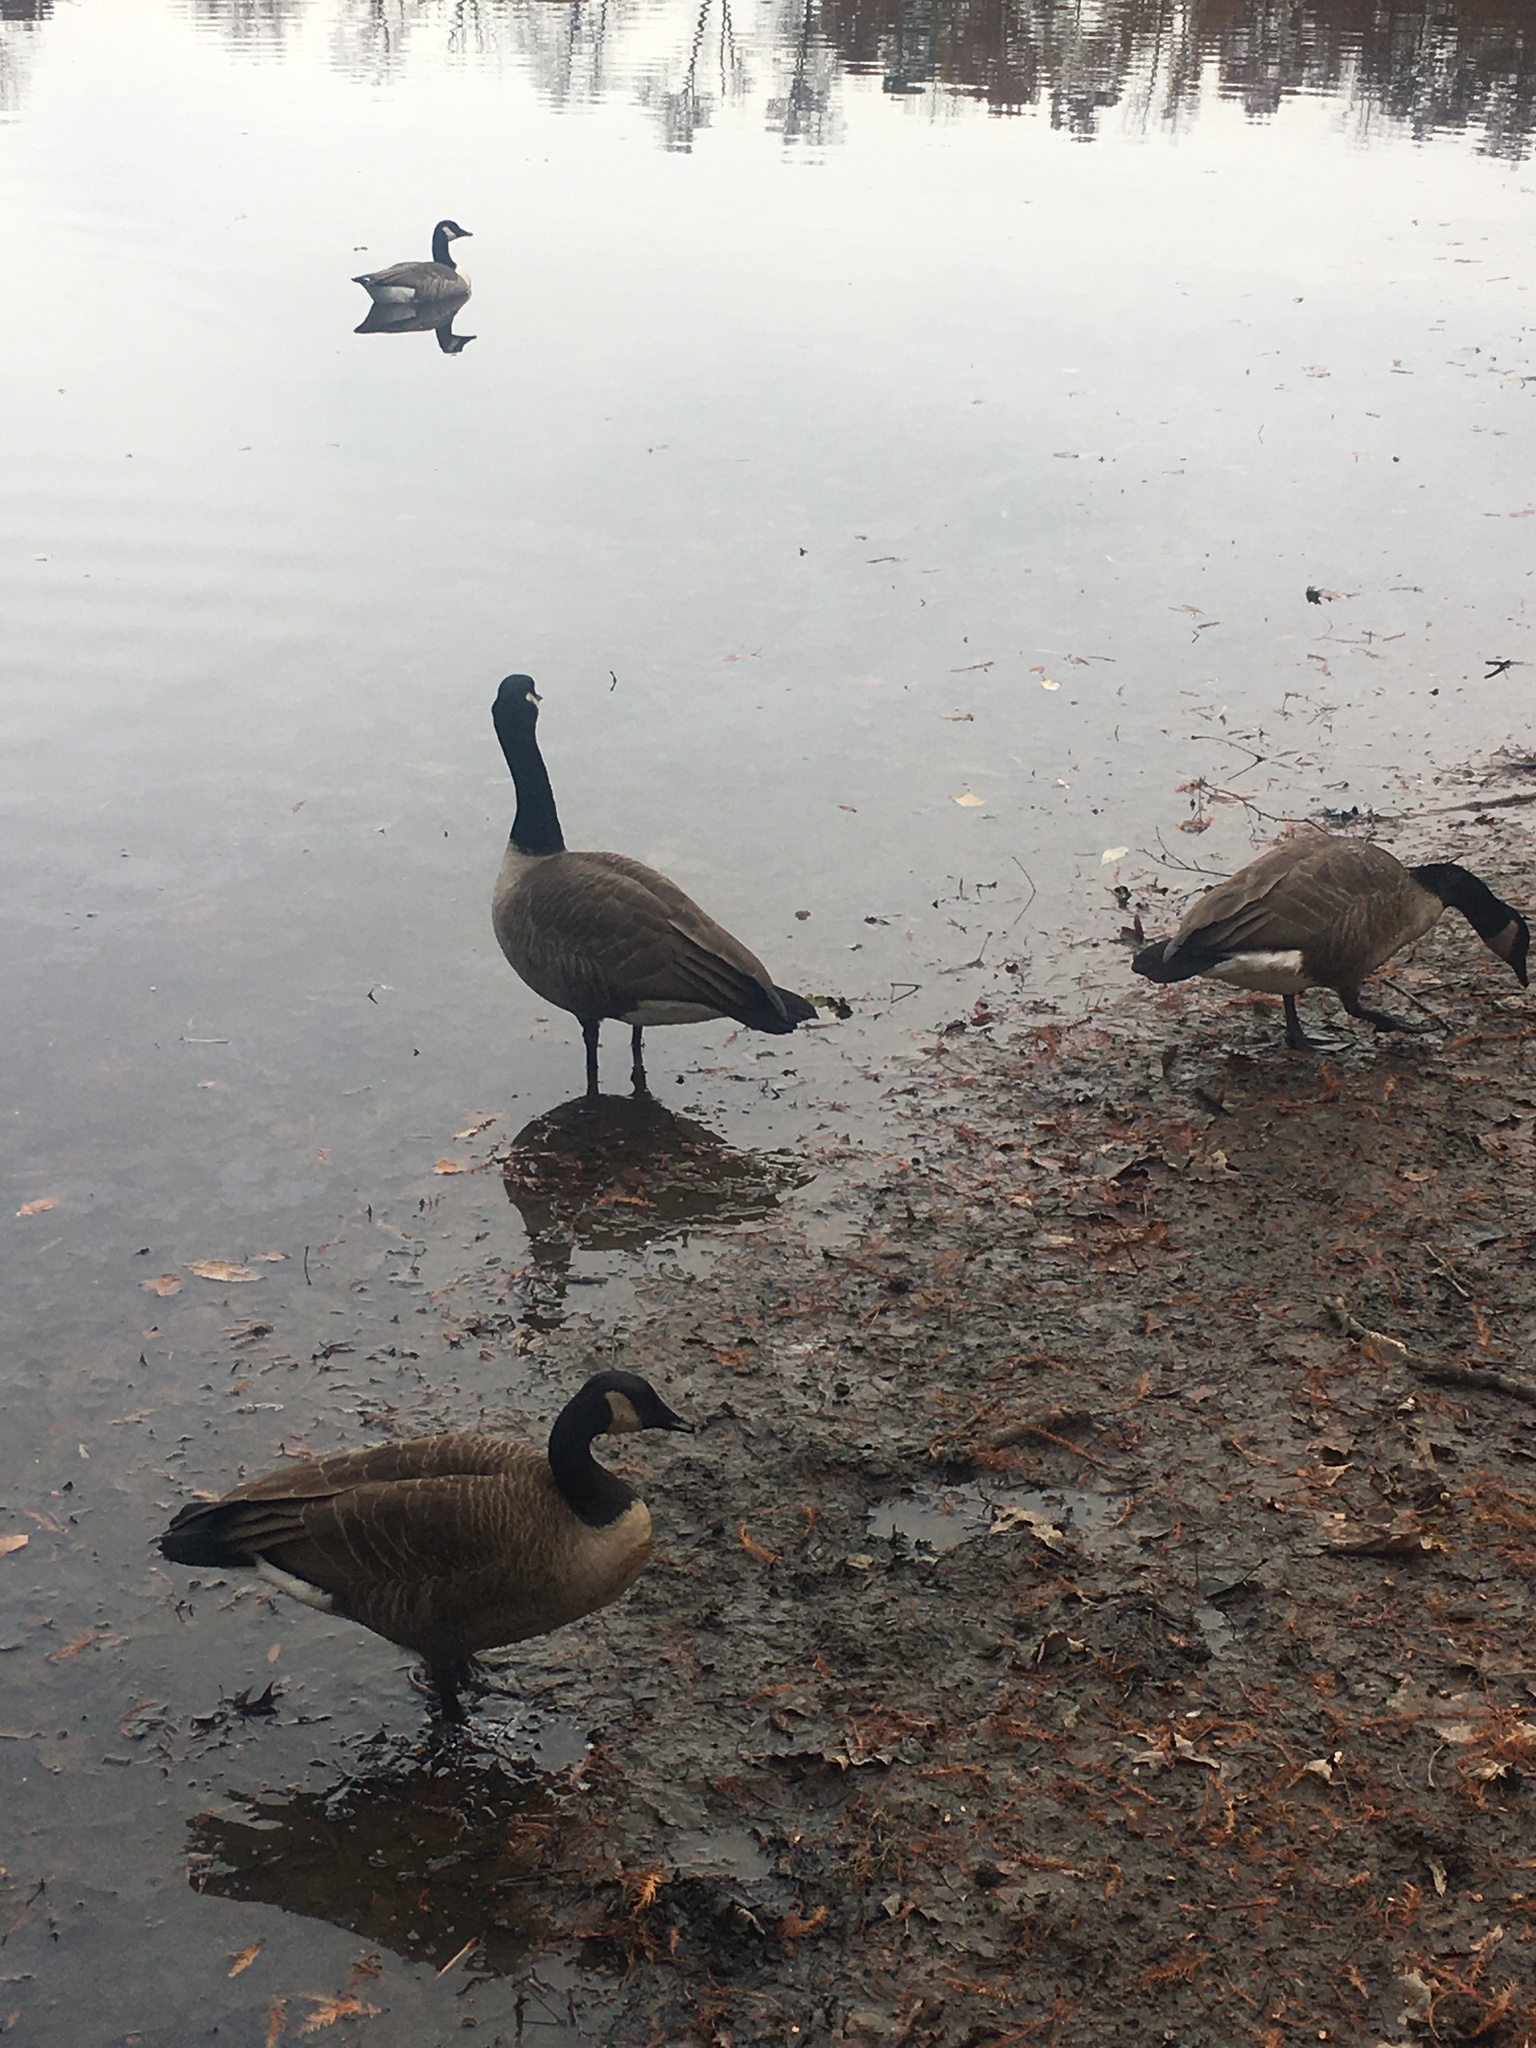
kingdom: Animalia
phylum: Chordata
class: Aves
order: Anseriformes
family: Anatidae
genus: Branta
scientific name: Branta canadensis
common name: Canada goose
